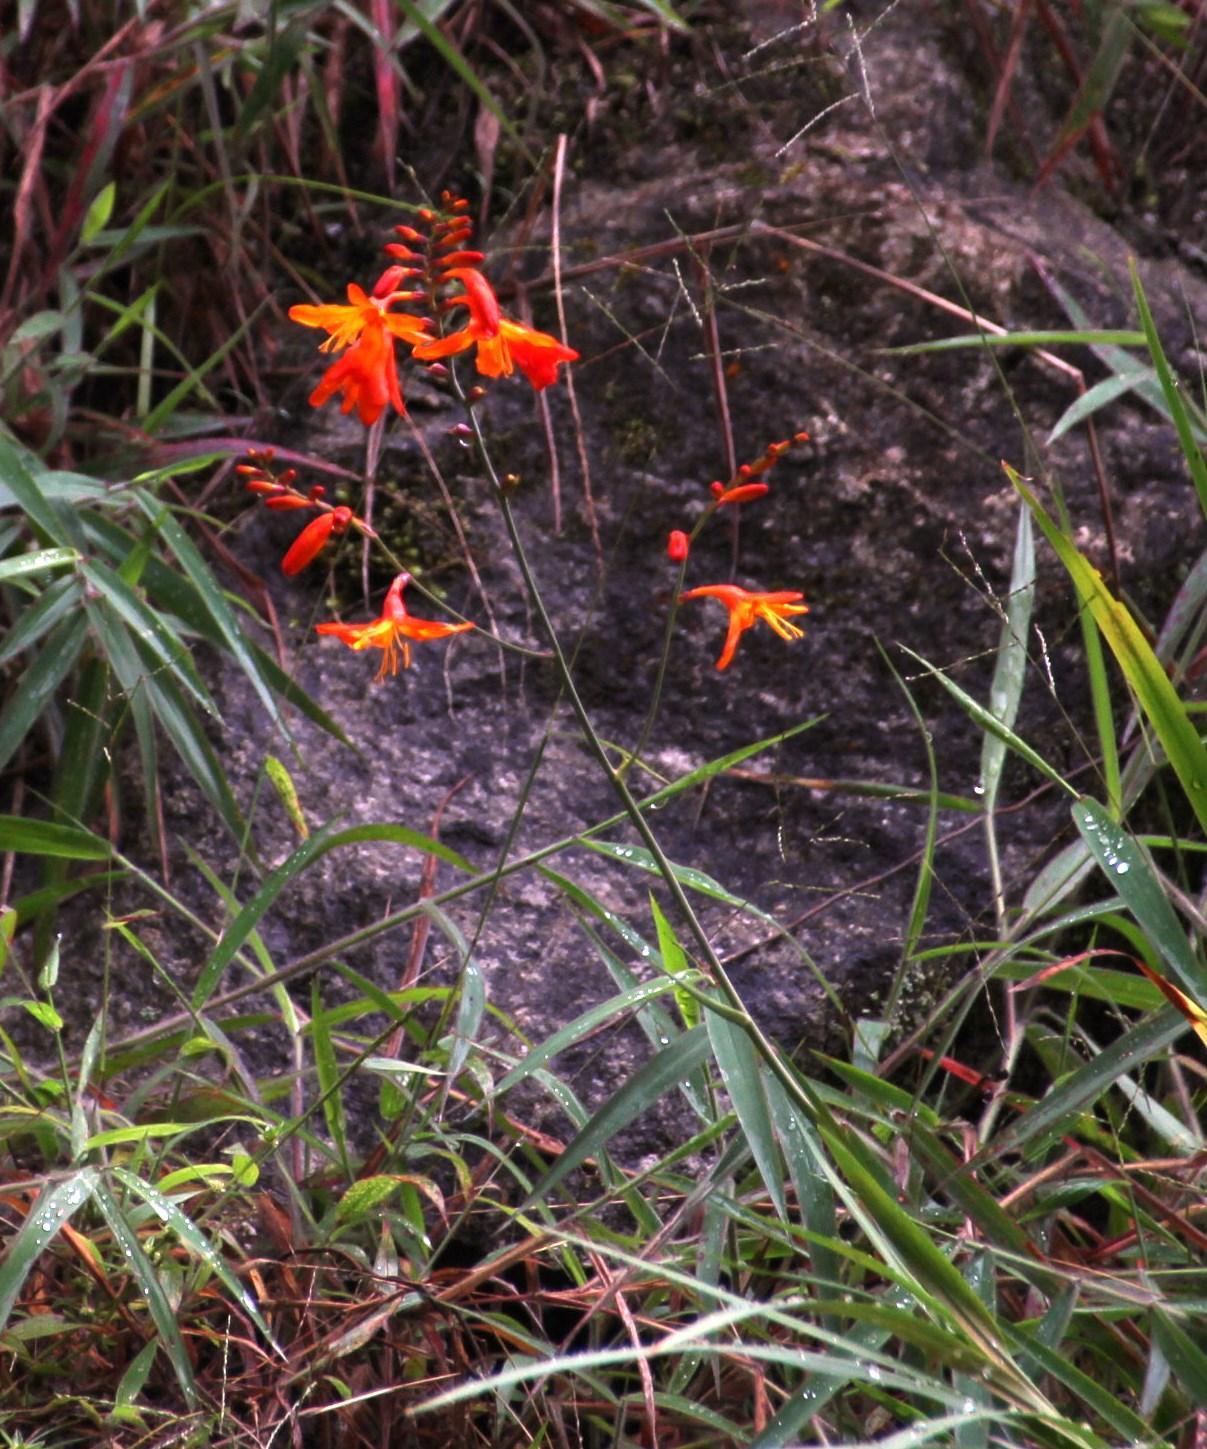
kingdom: Plantae
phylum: Tracheophyta
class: Liliopsida
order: Asparagales
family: Iridaceae
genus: Crocosmia
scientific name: Crocosmia crocosmiiflora
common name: Montbretia
